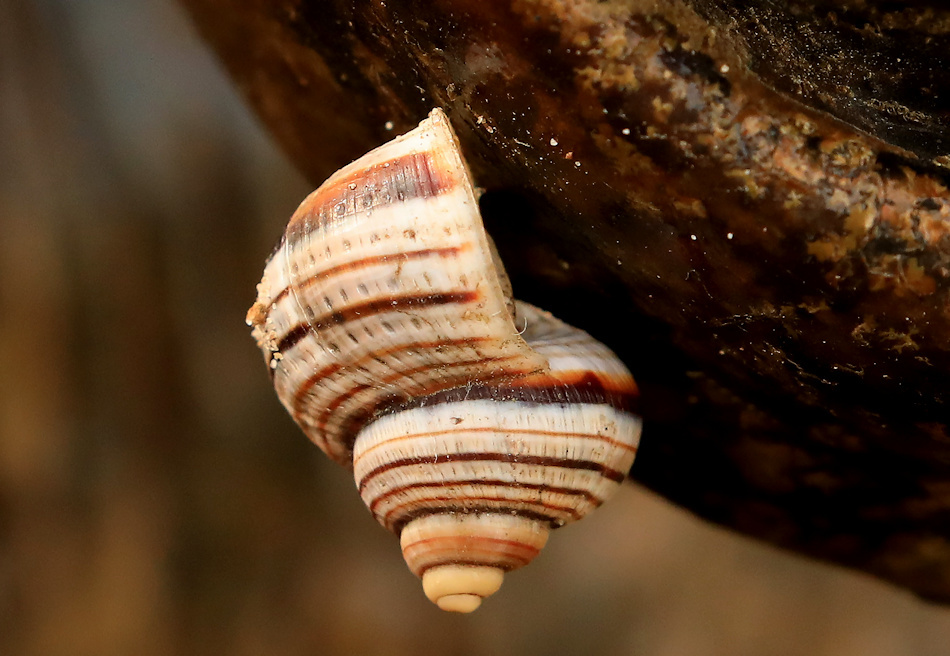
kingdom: Animalia
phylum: Mollusca
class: Gastropoda
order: Littorinimorpha
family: Pomatiidae
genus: Tropidophora
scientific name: Tropidophora foveolata
